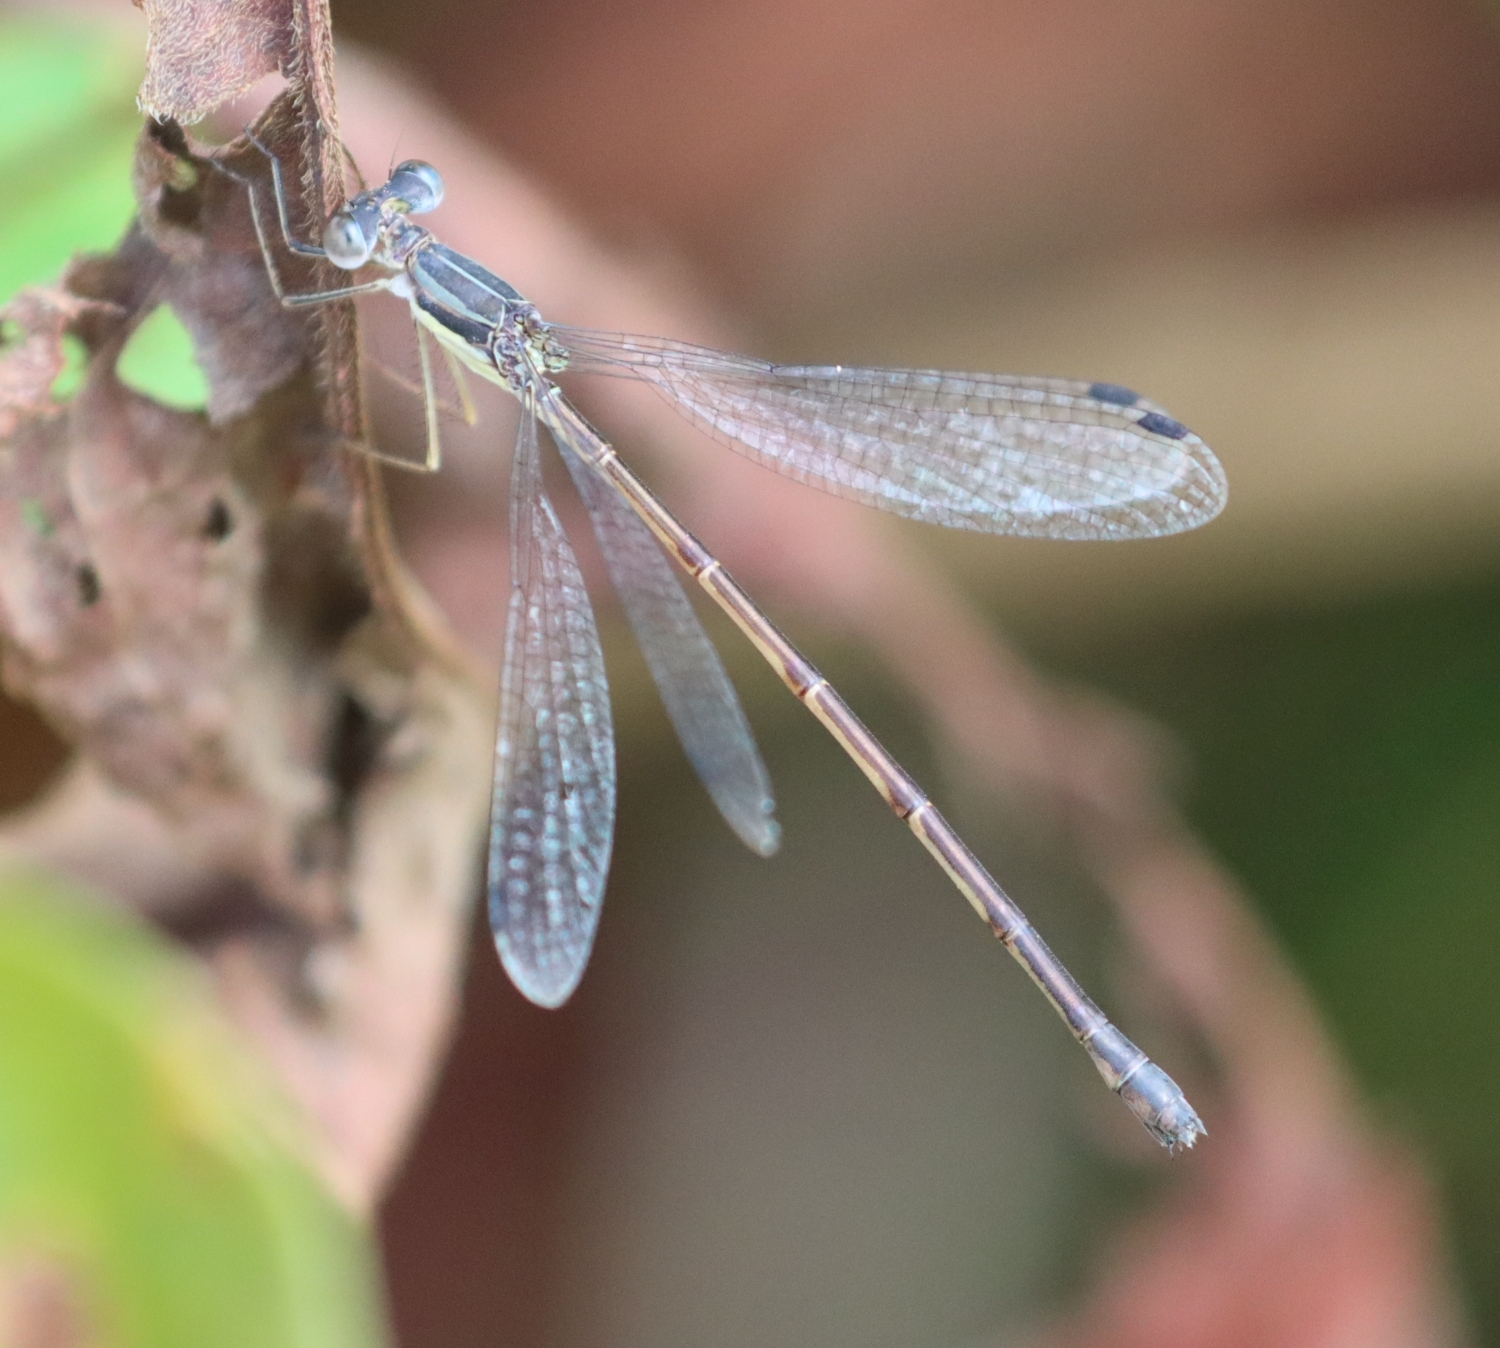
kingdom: Animalia
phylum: Arthropoda
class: Insecta
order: Odonata
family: Lestidae
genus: Lestes
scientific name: Lestes rectangularis
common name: Slender spreadwing
